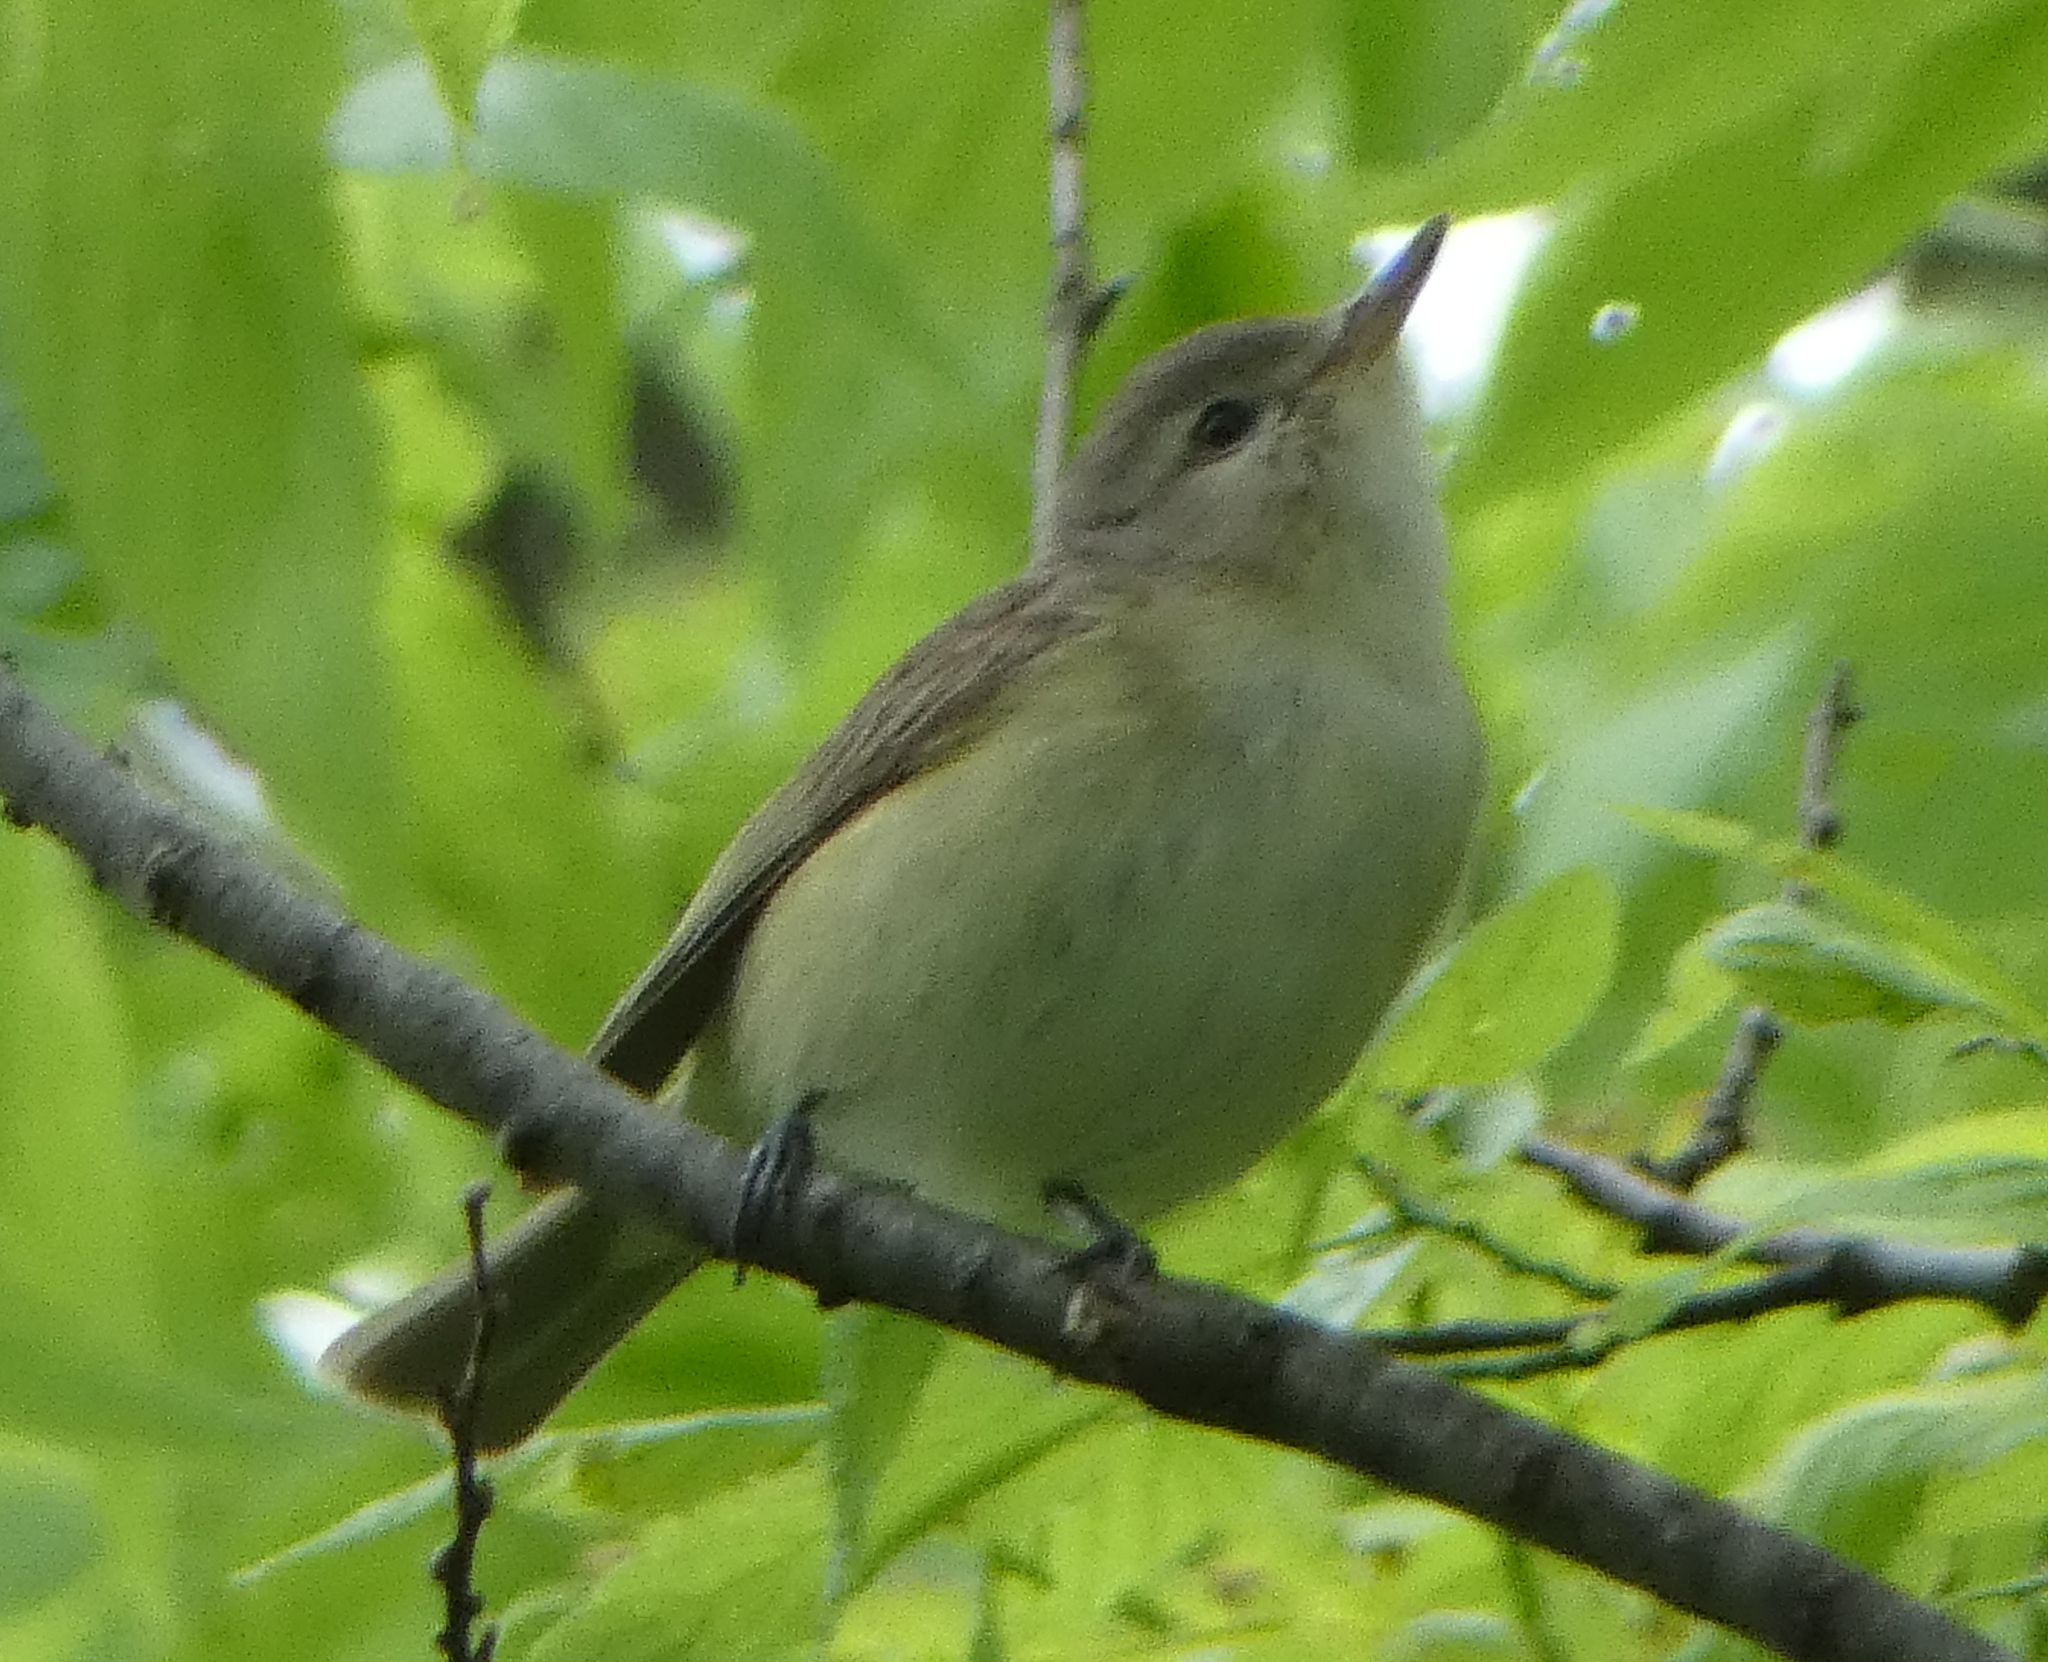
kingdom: Animalia
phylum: Chordata
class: Aves
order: Passeriformes
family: Vireonidae
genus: Vireo
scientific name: Vireo gilvus
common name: Warbling vireo
